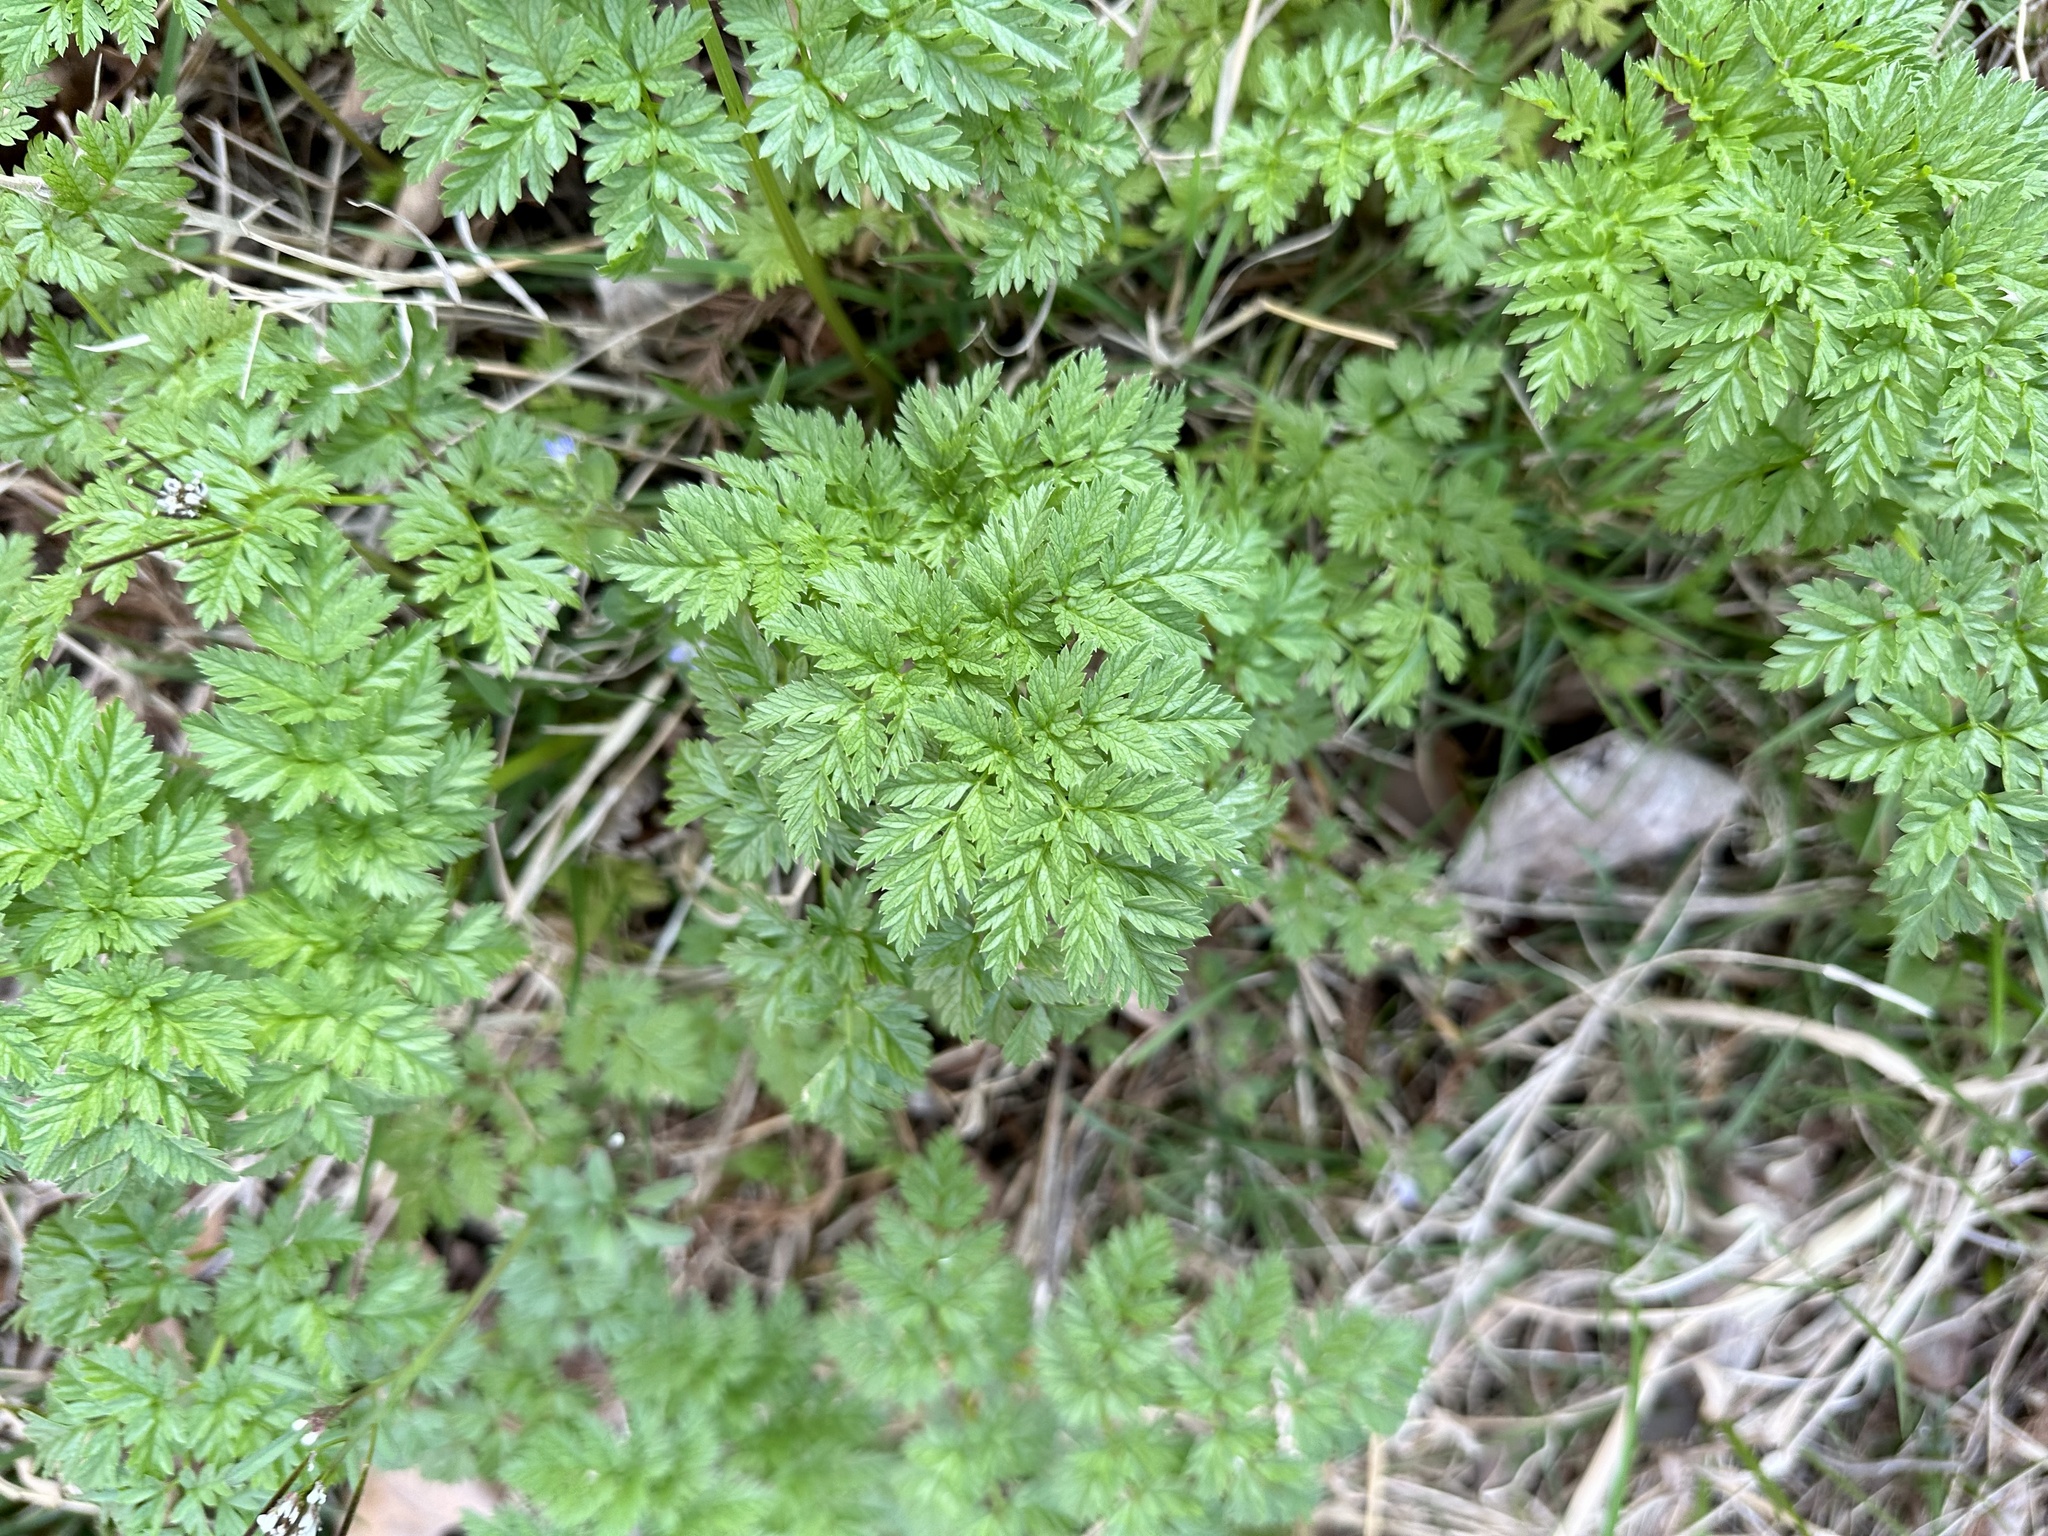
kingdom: Plantae
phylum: Tracheophyta
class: Magnoliopsida
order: Apiales
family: Apiaceae
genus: Conium
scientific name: Conium maculatum
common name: Hemlock
